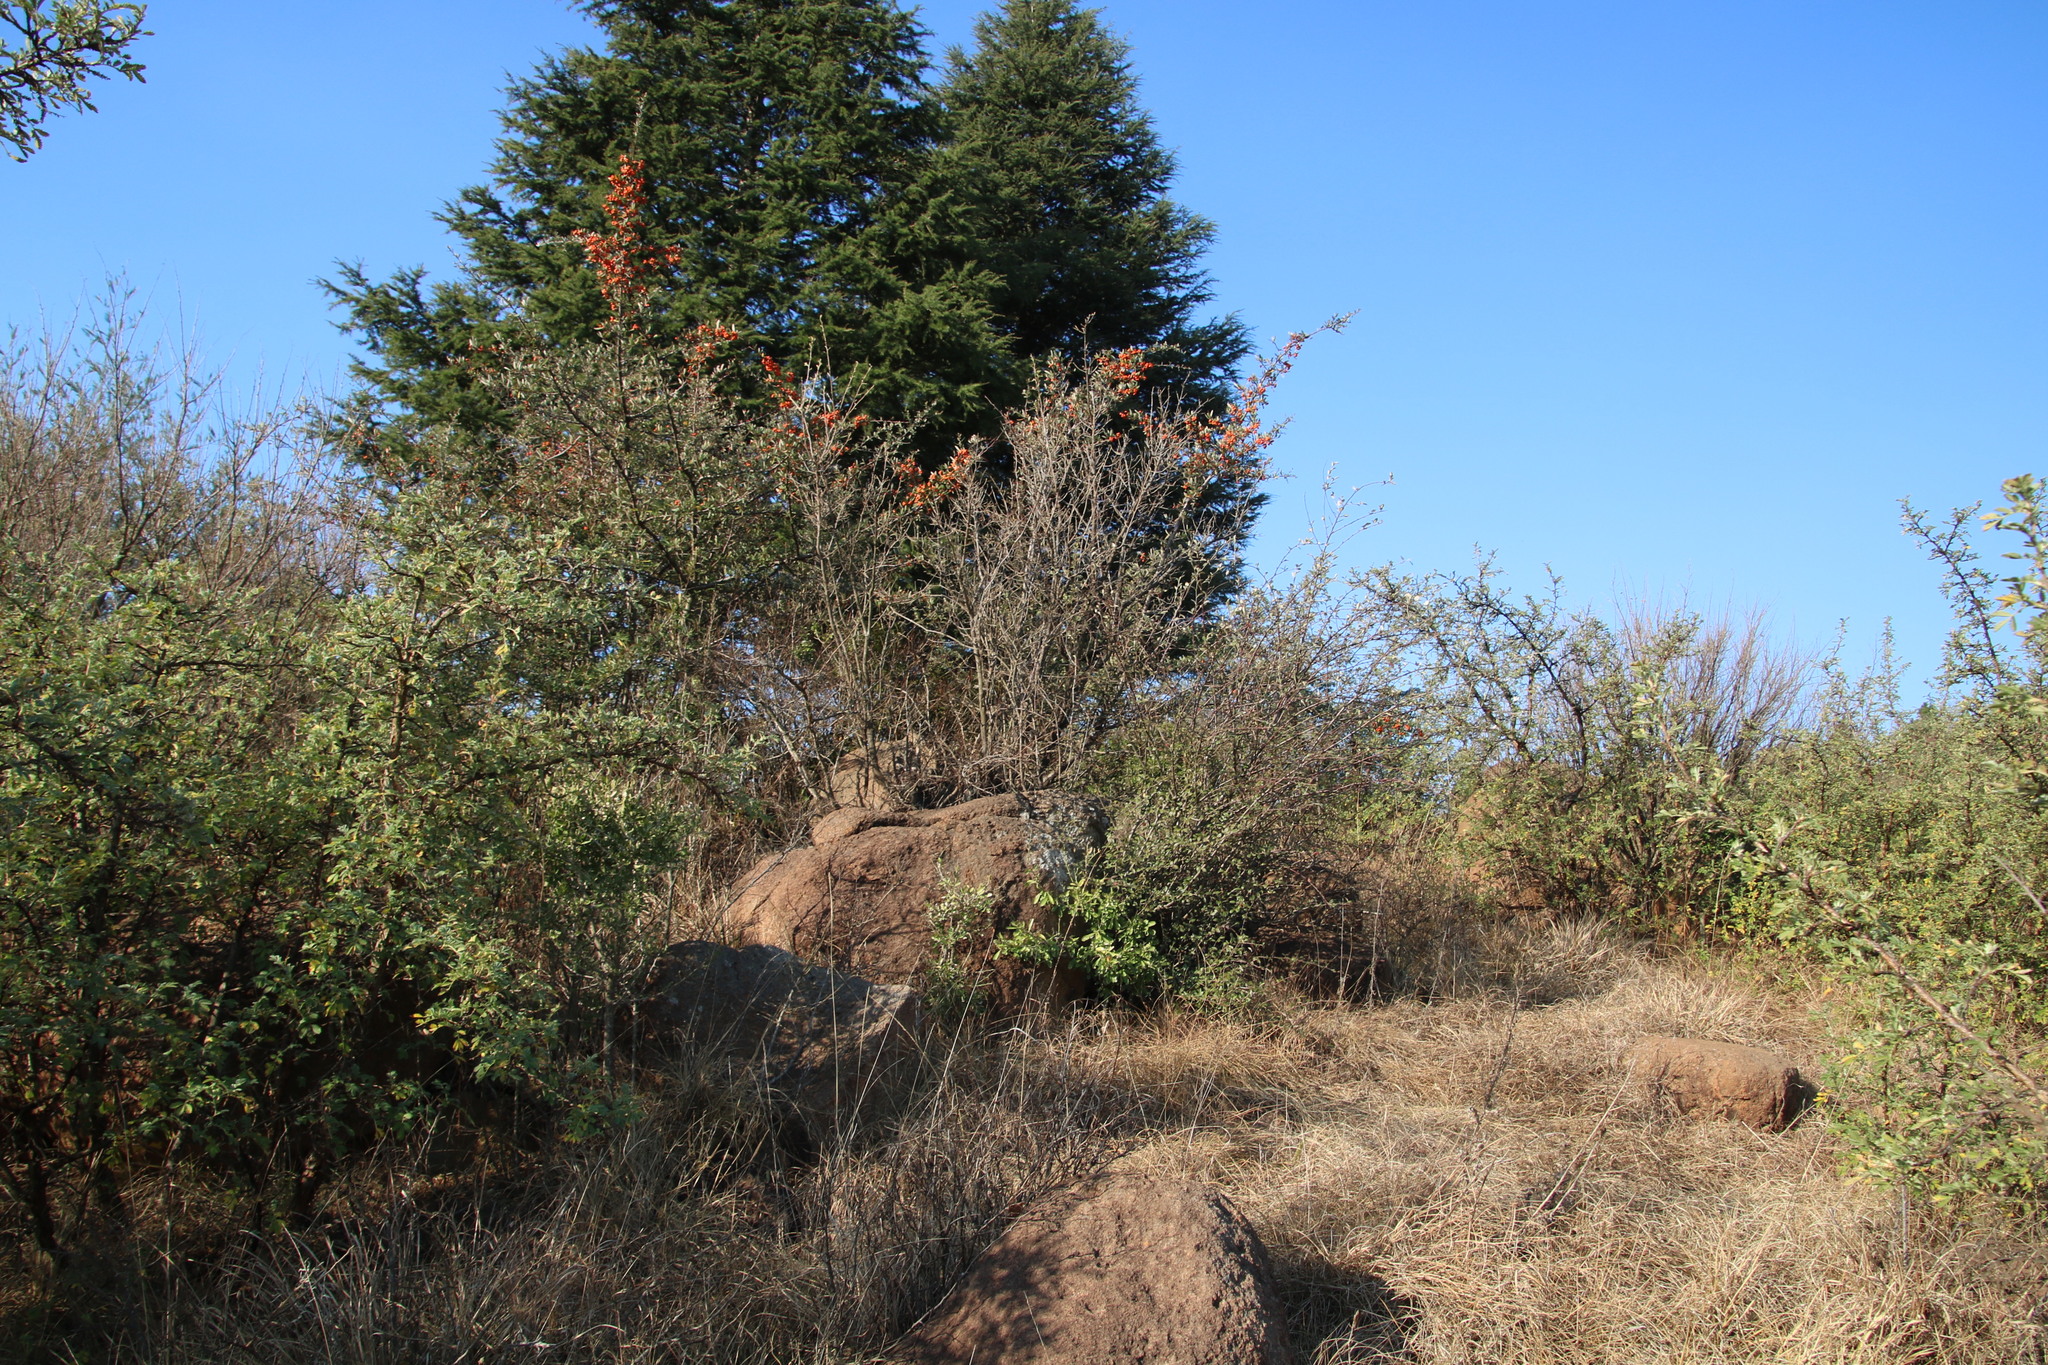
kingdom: Plantae
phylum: Tracheophyta
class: Magnoliopsida
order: Rosales
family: Rosaceae
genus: Pyracantha
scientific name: Pyracantha angustifolia
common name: Narrowleaf firethorn
